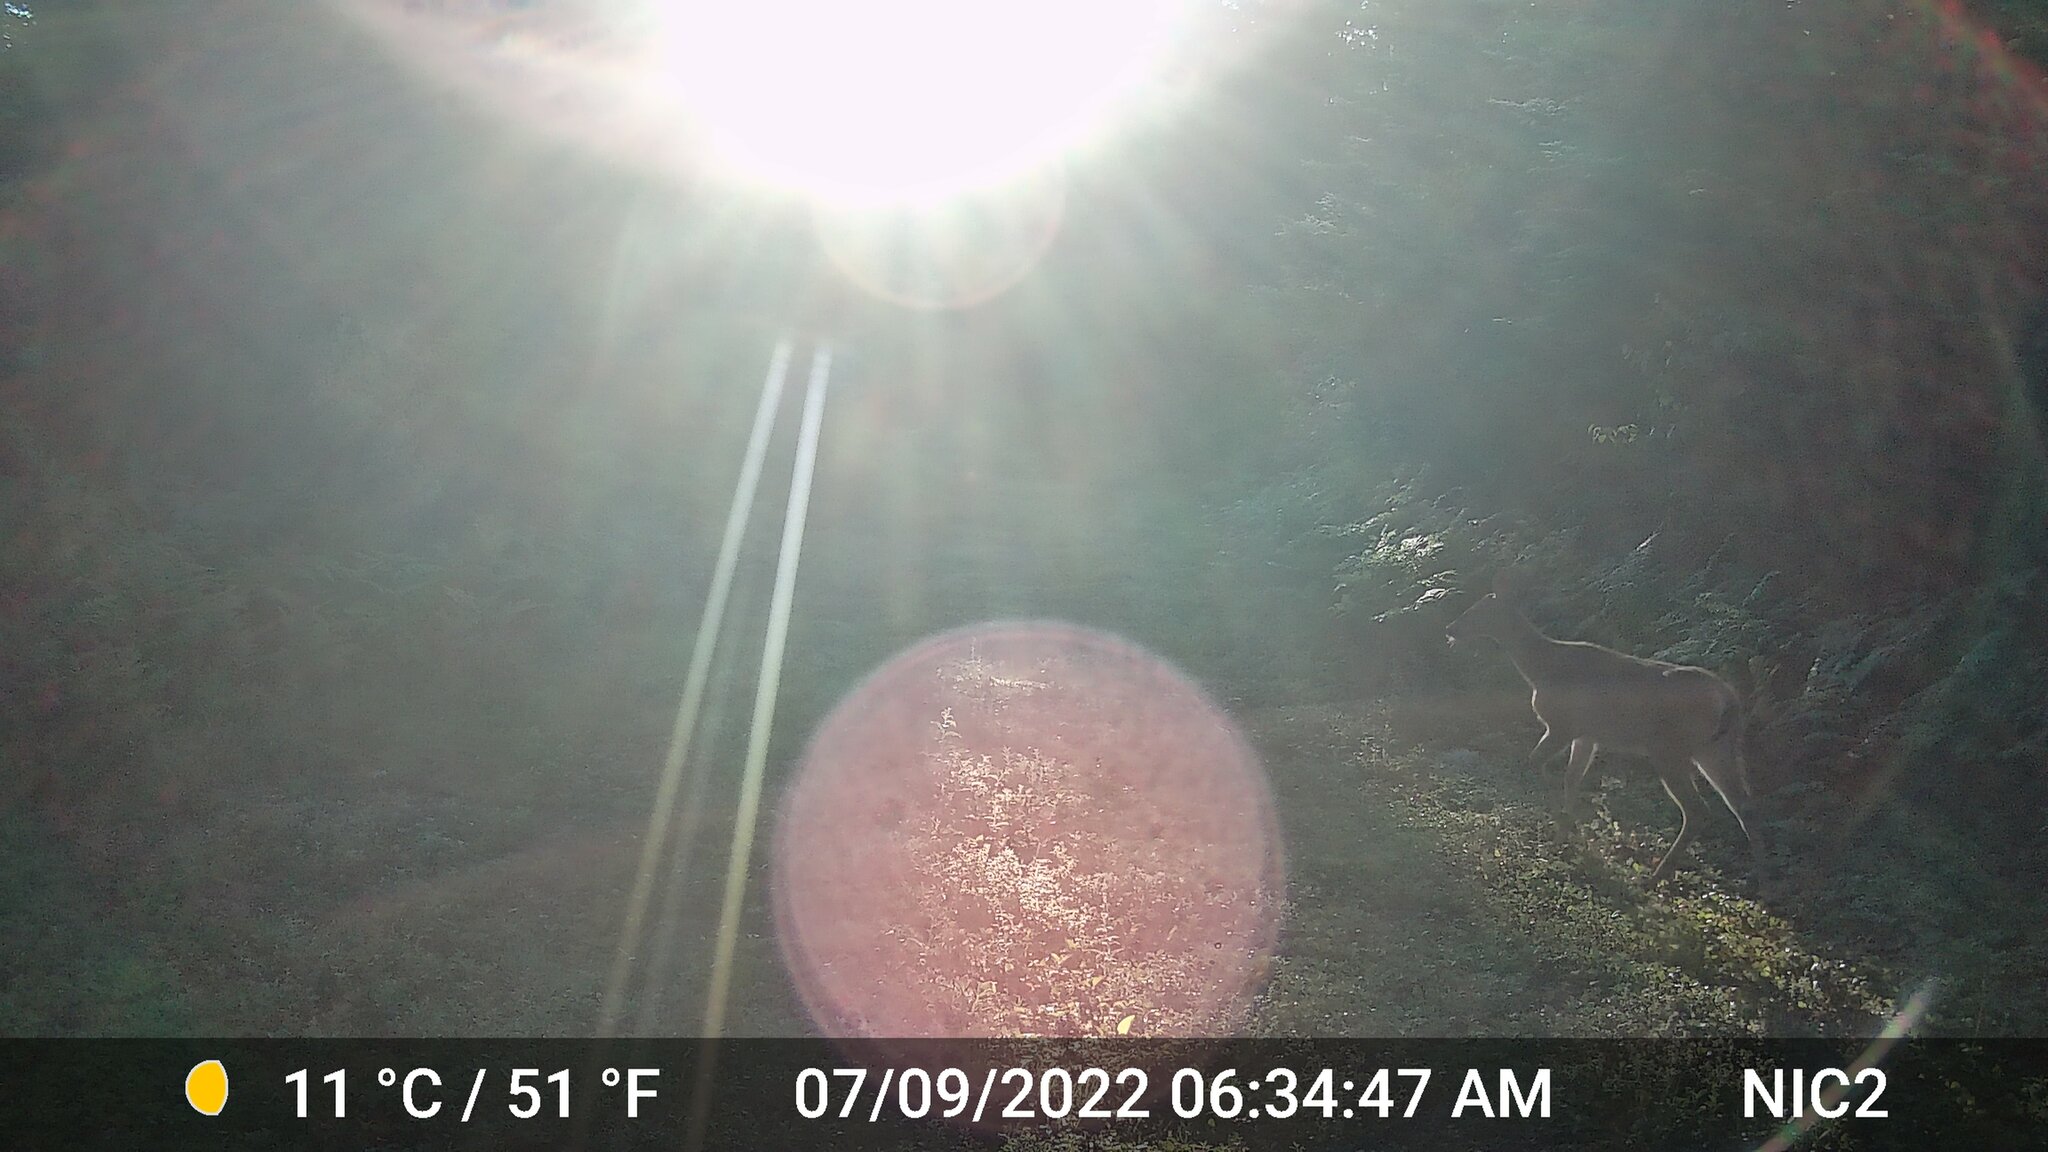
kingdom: Animalia
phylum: Chordata
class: Mammalia
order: Artiodactyla
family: Cervidae
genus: Odocoileus
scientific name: Odocoileus virginianus
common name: White-tailed deer
